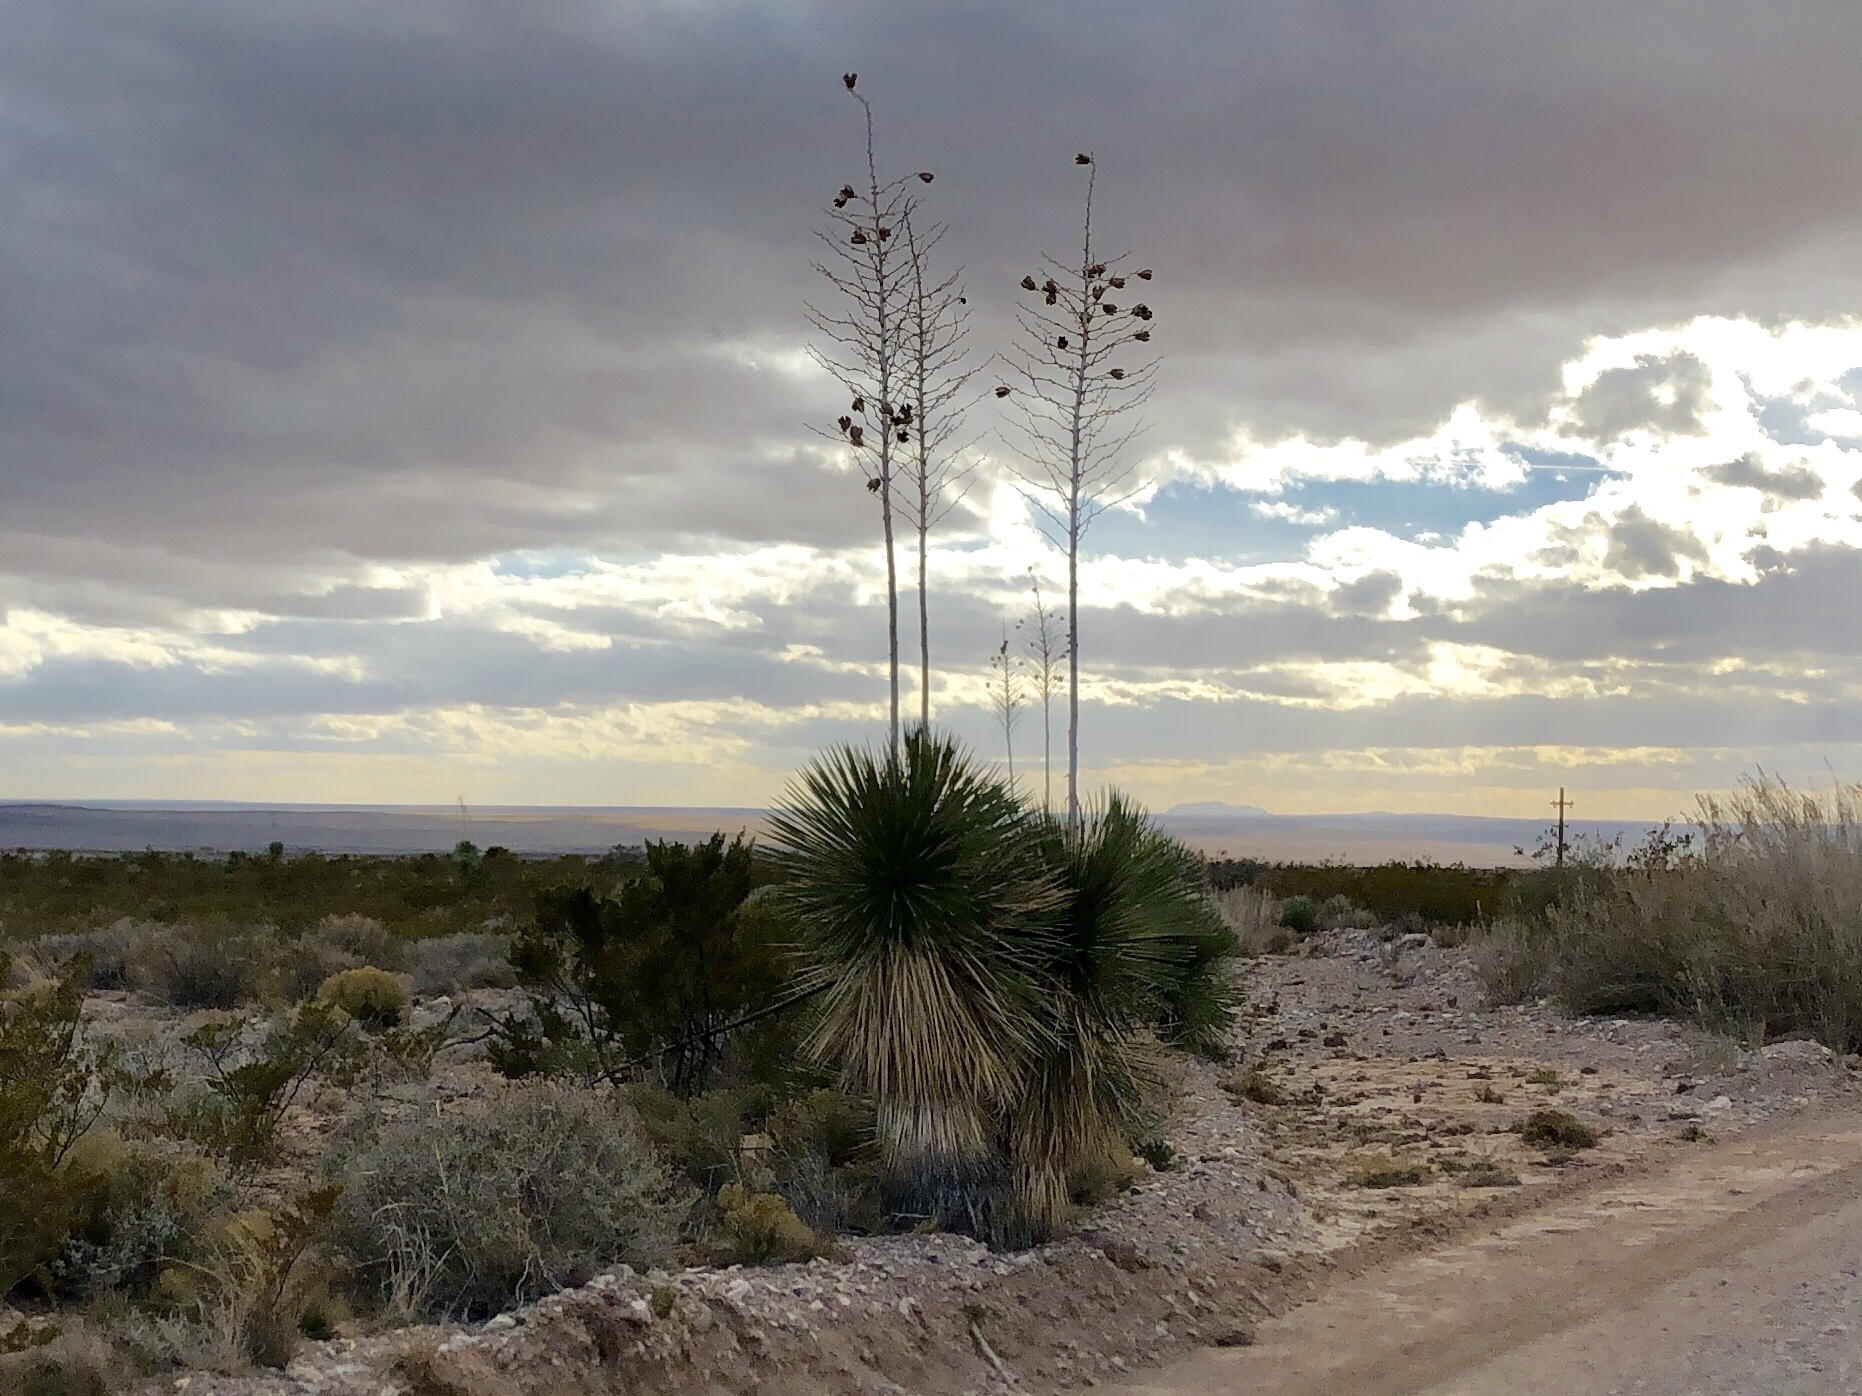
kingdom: Plantae
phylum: Tracheophyta
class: Liliopsida
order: Asparagales
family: Asparagaceae
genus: Yucca
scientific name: Yucca elata
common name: Palmella
